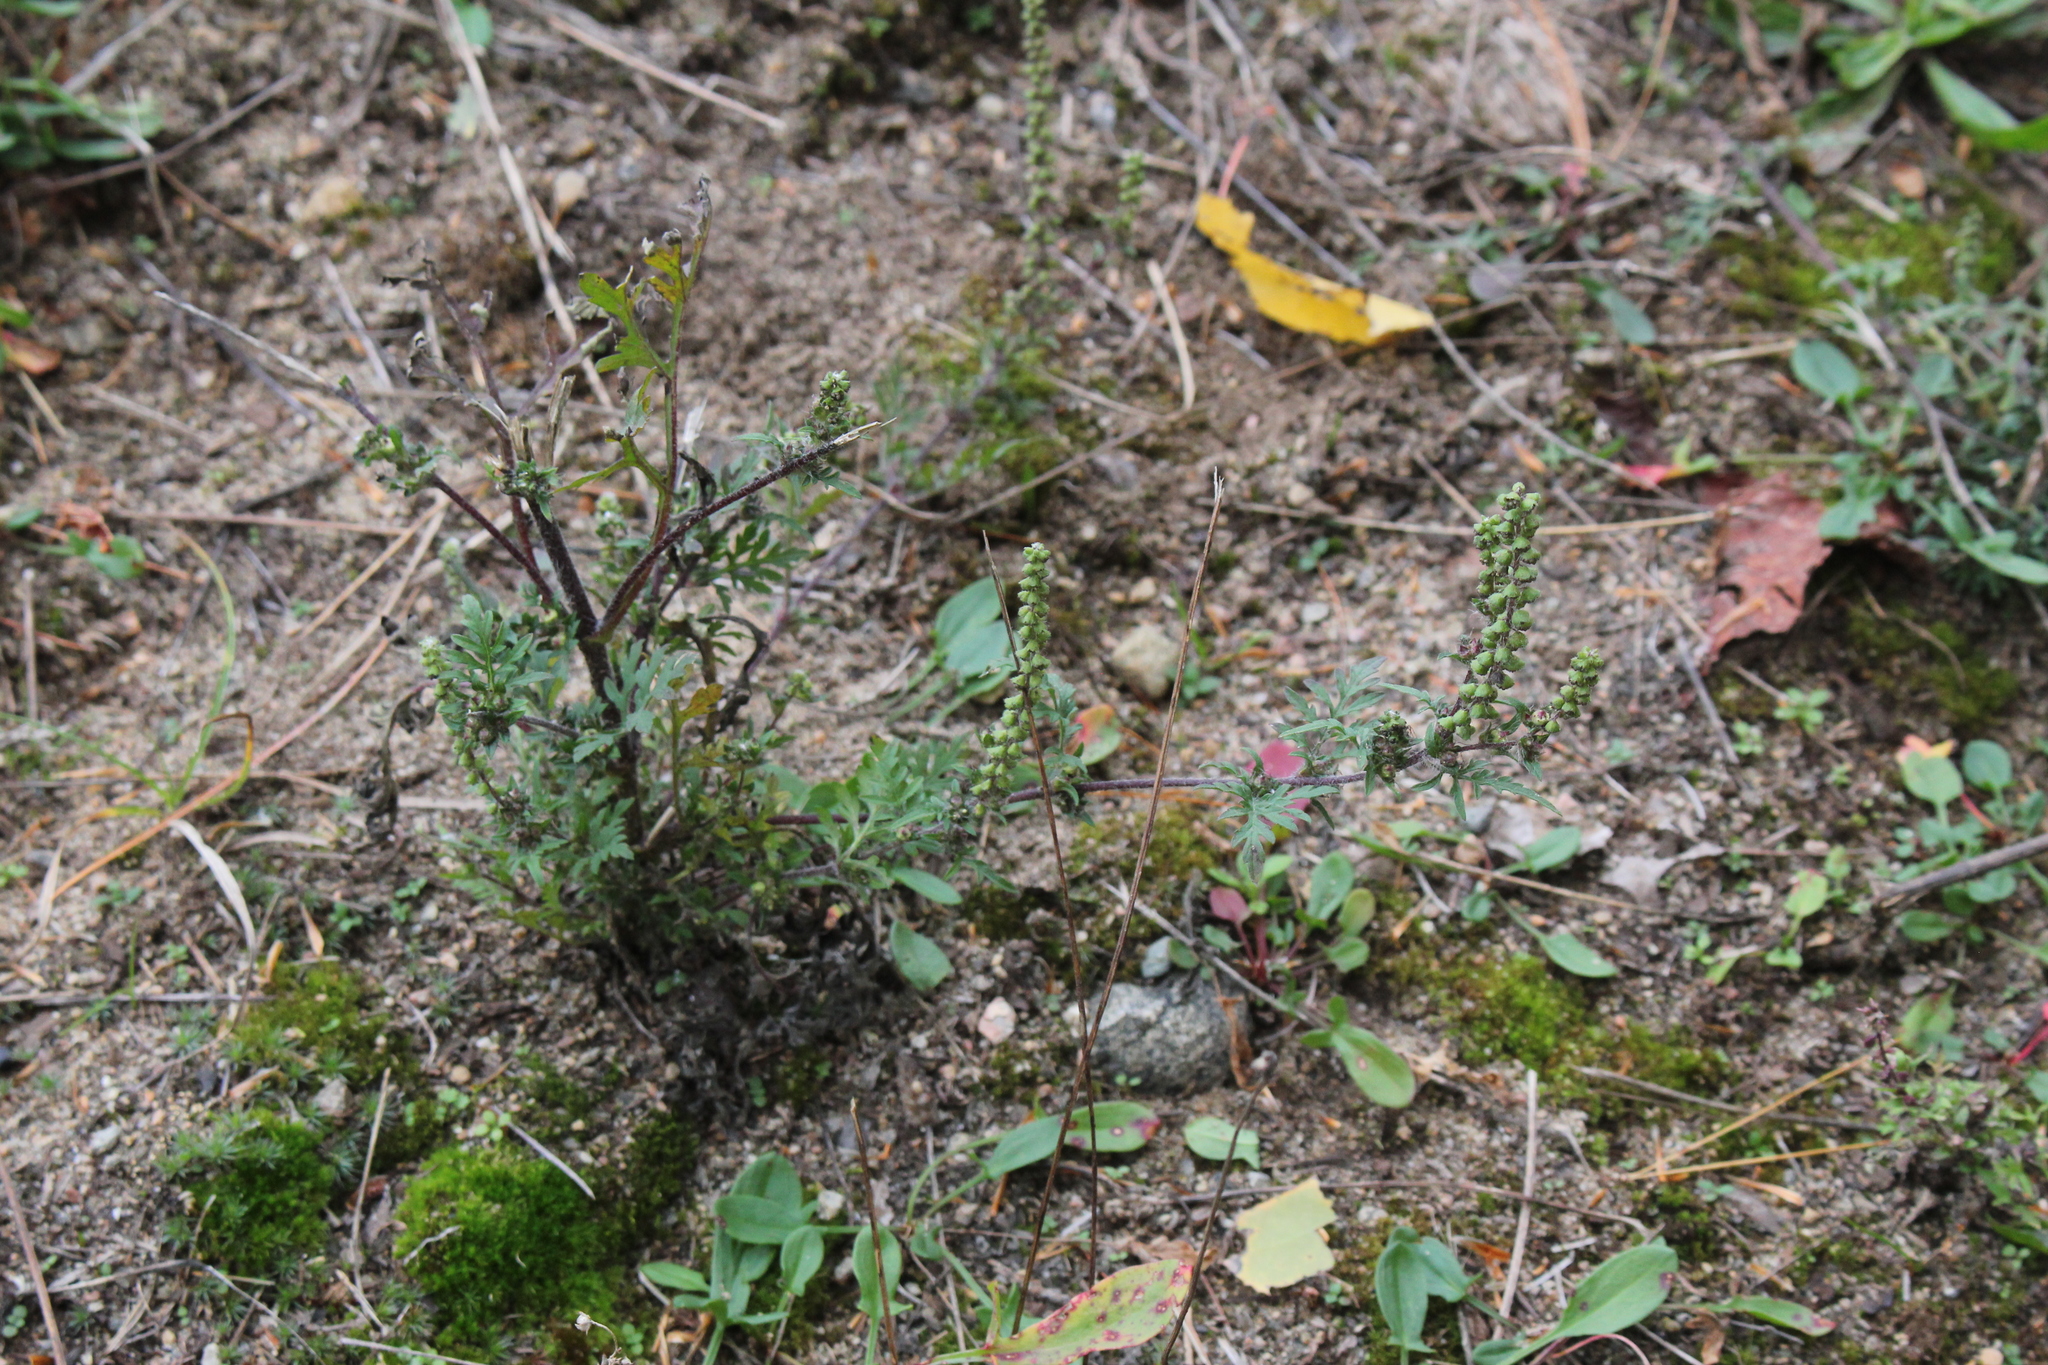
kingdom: Plantae
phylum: Tracheophyta
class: Magnoliopsida
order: Asterales
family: Asteraceae
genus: Ambrosia
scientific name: Ambrosia artemisiifolia
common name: Annual ragweed
